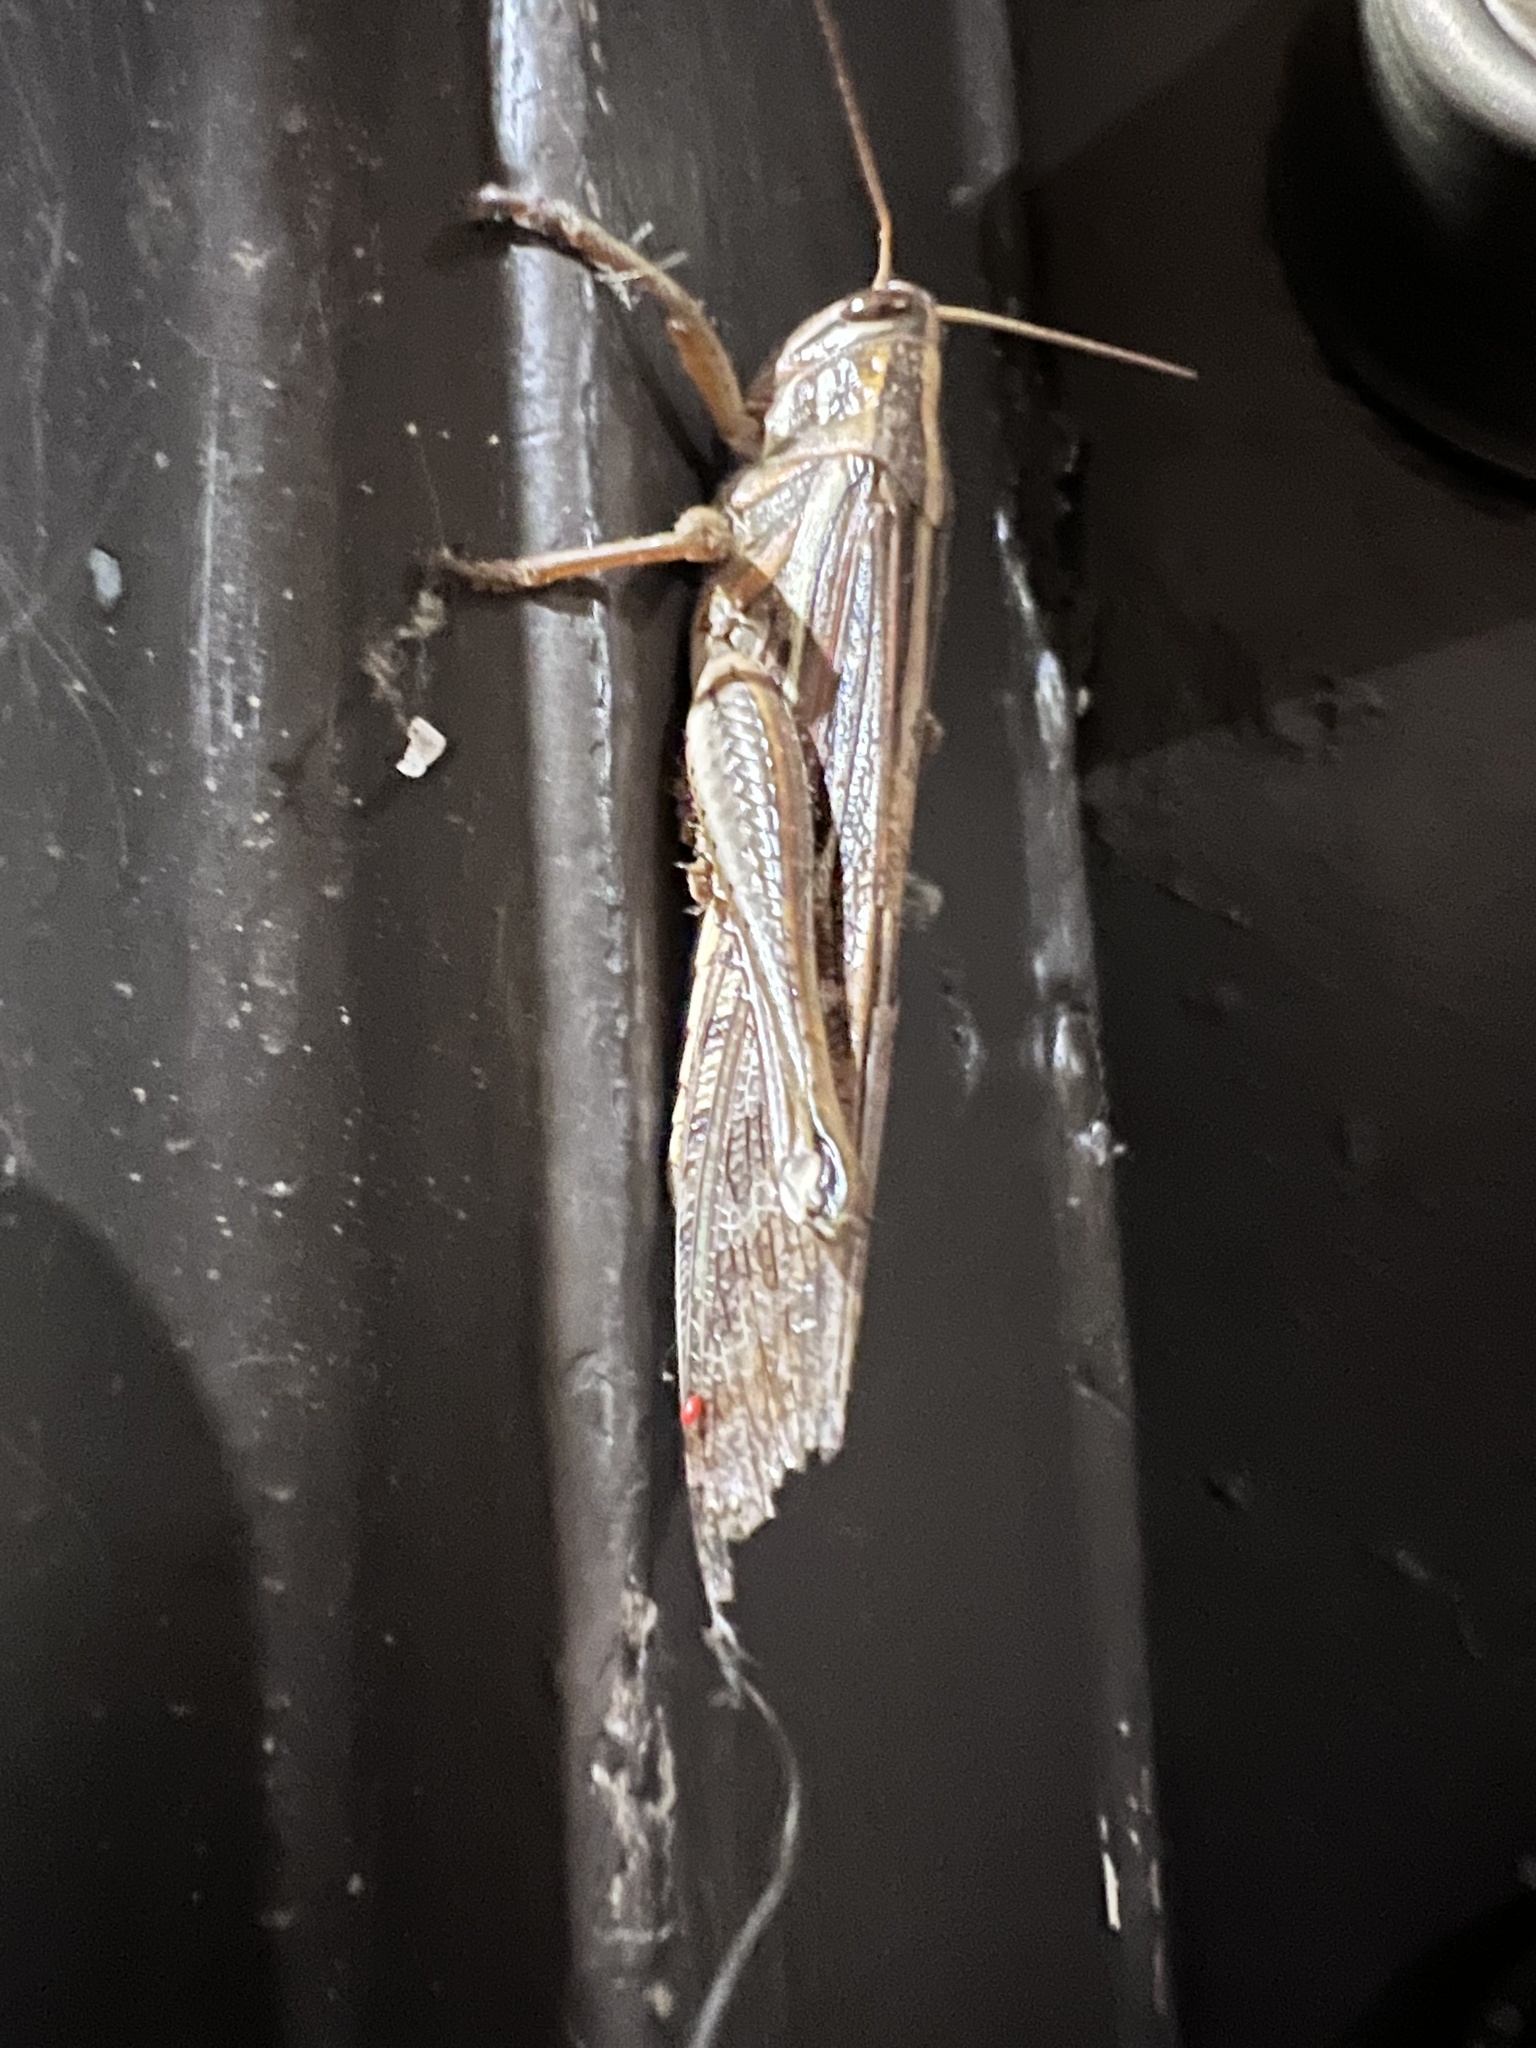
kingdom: Animalia
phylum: Arthropoda
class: Insecta
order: Orthoptera
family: Acrididae
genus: Schistocerca
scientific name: Schistocerca americana
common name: American bird locust
